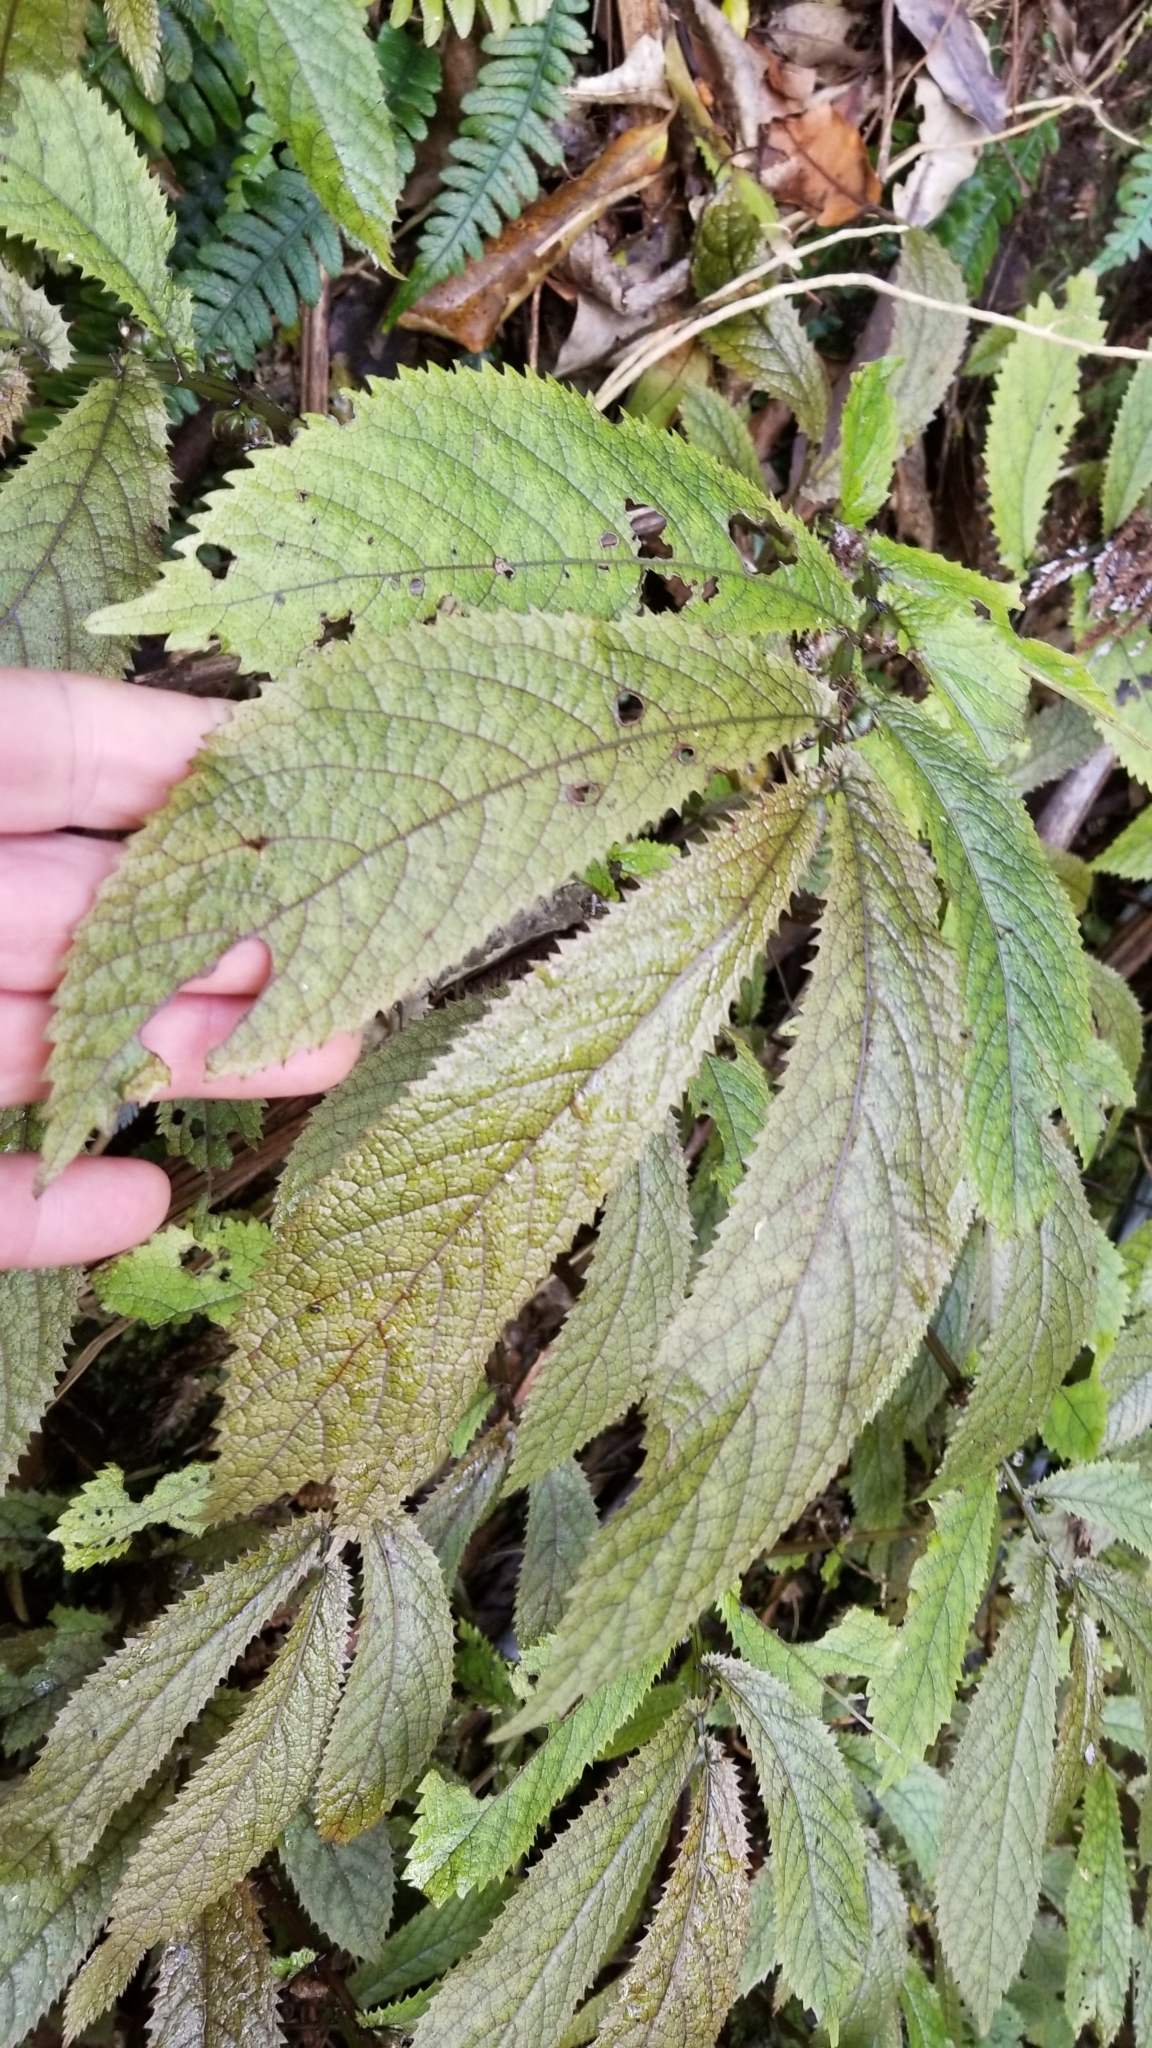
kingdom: Plantae
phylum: Tracheophyta
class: Magnoliopsida
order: Rosales
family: Urticaceae
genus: Elatostema
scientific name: Elatostema rugosum
